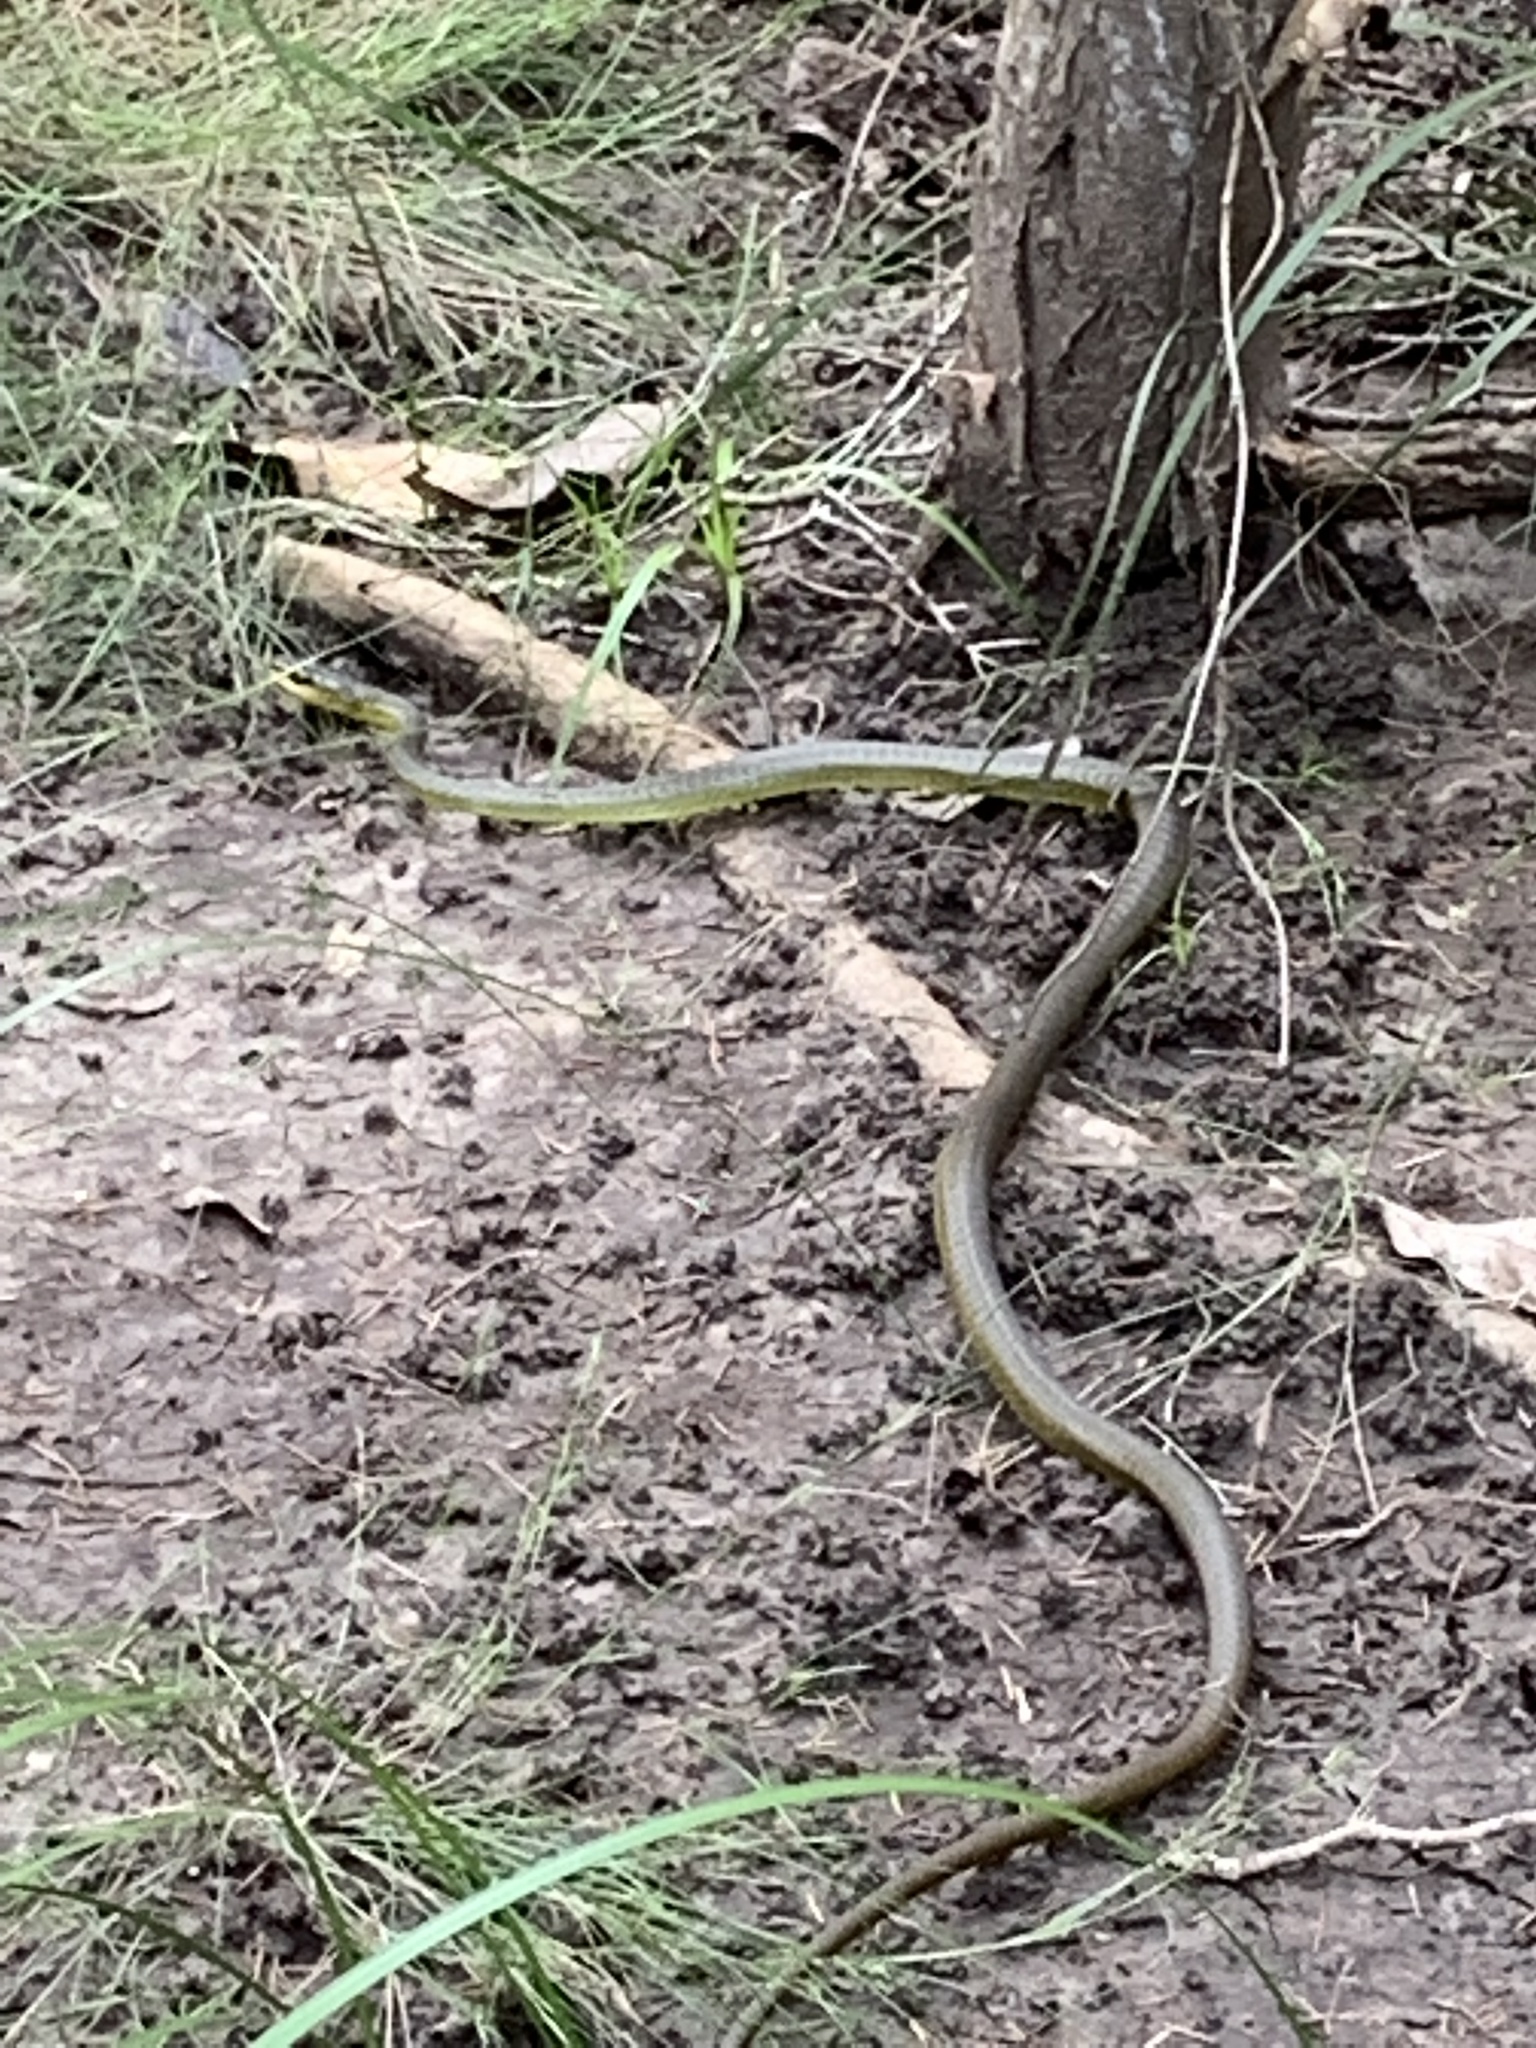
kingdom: Animalia
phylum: Chordata
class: Squamata
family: Colubridae
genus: Dendrelaphis
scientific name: Dendrelaphis punctulatus
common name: Common tree snake
